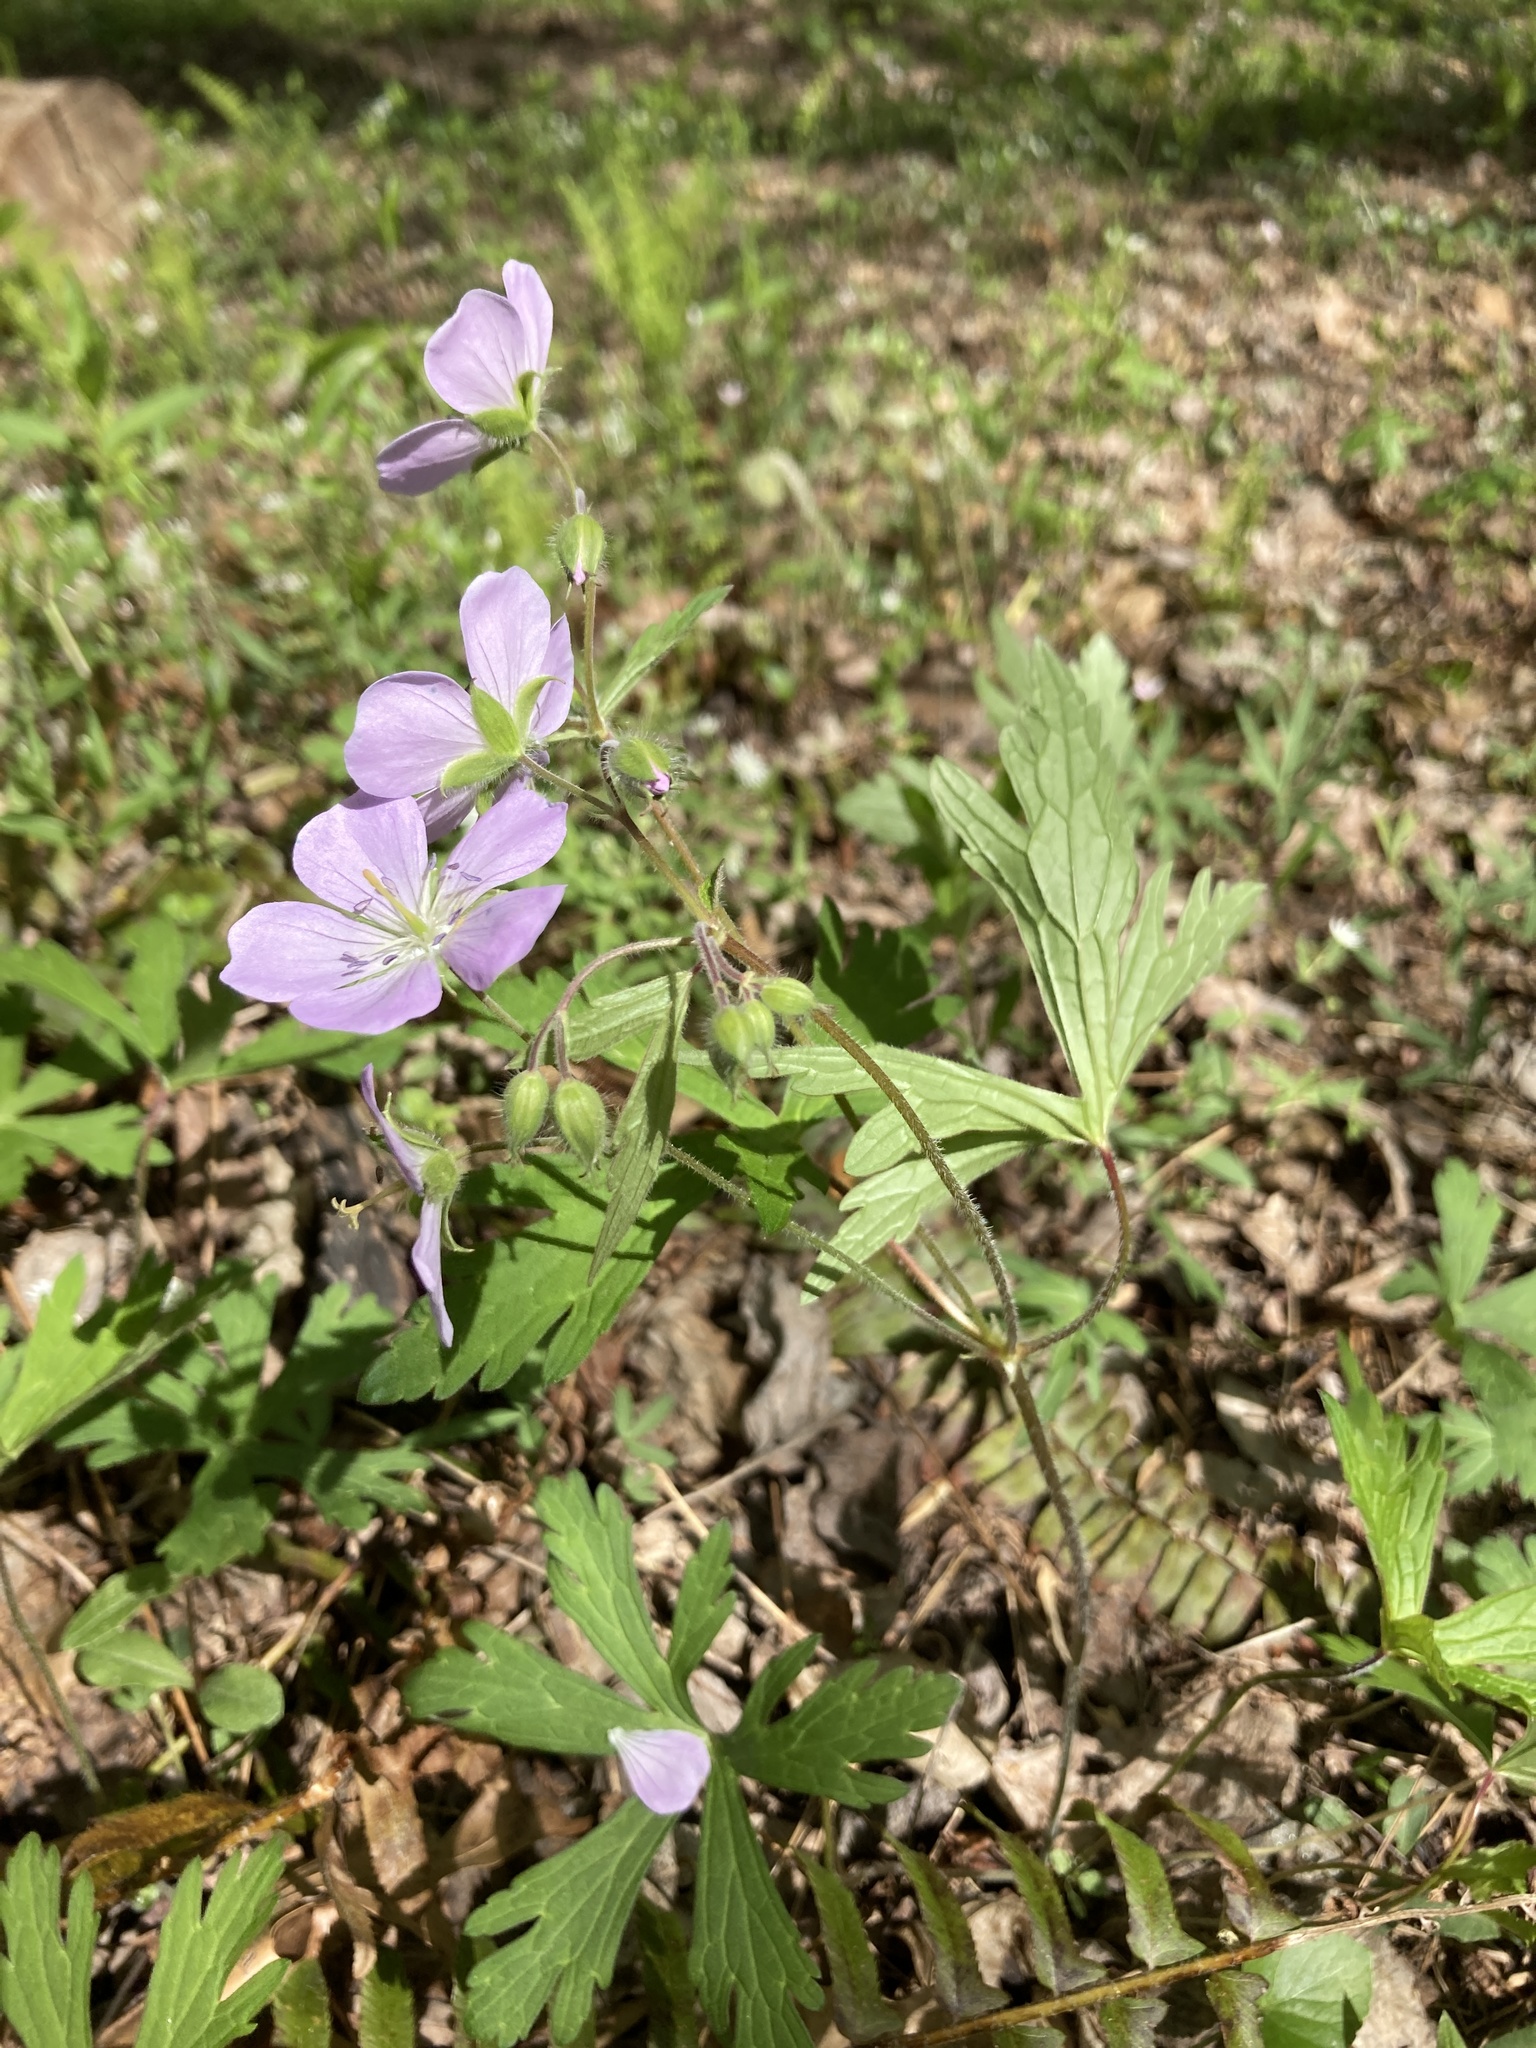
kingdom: Plantae
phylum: Tracheophyta
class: Magnoliopsida
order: Geraniales
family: Geraniaceae
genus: Geranium
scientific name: Geranium maculatum
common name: Spotted geranium
